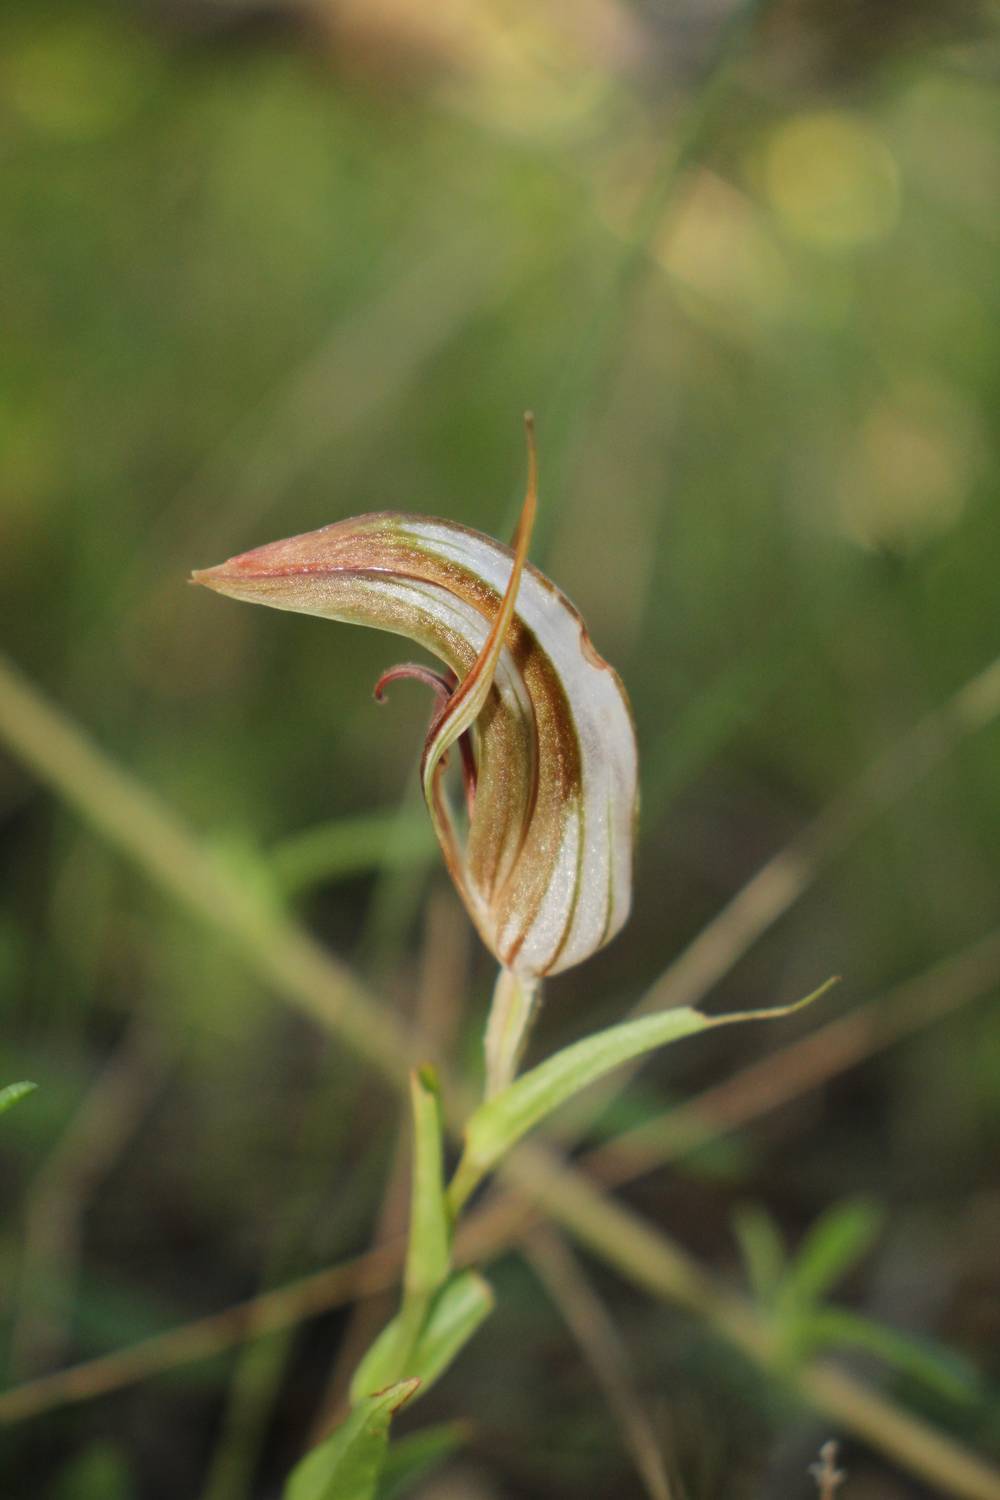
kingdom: Plantae
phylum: Tracheophyta
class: Liliopsida
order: Asparagales
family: Orchidaceae
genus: Pterostylis
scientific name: Pterostylis rogersii
